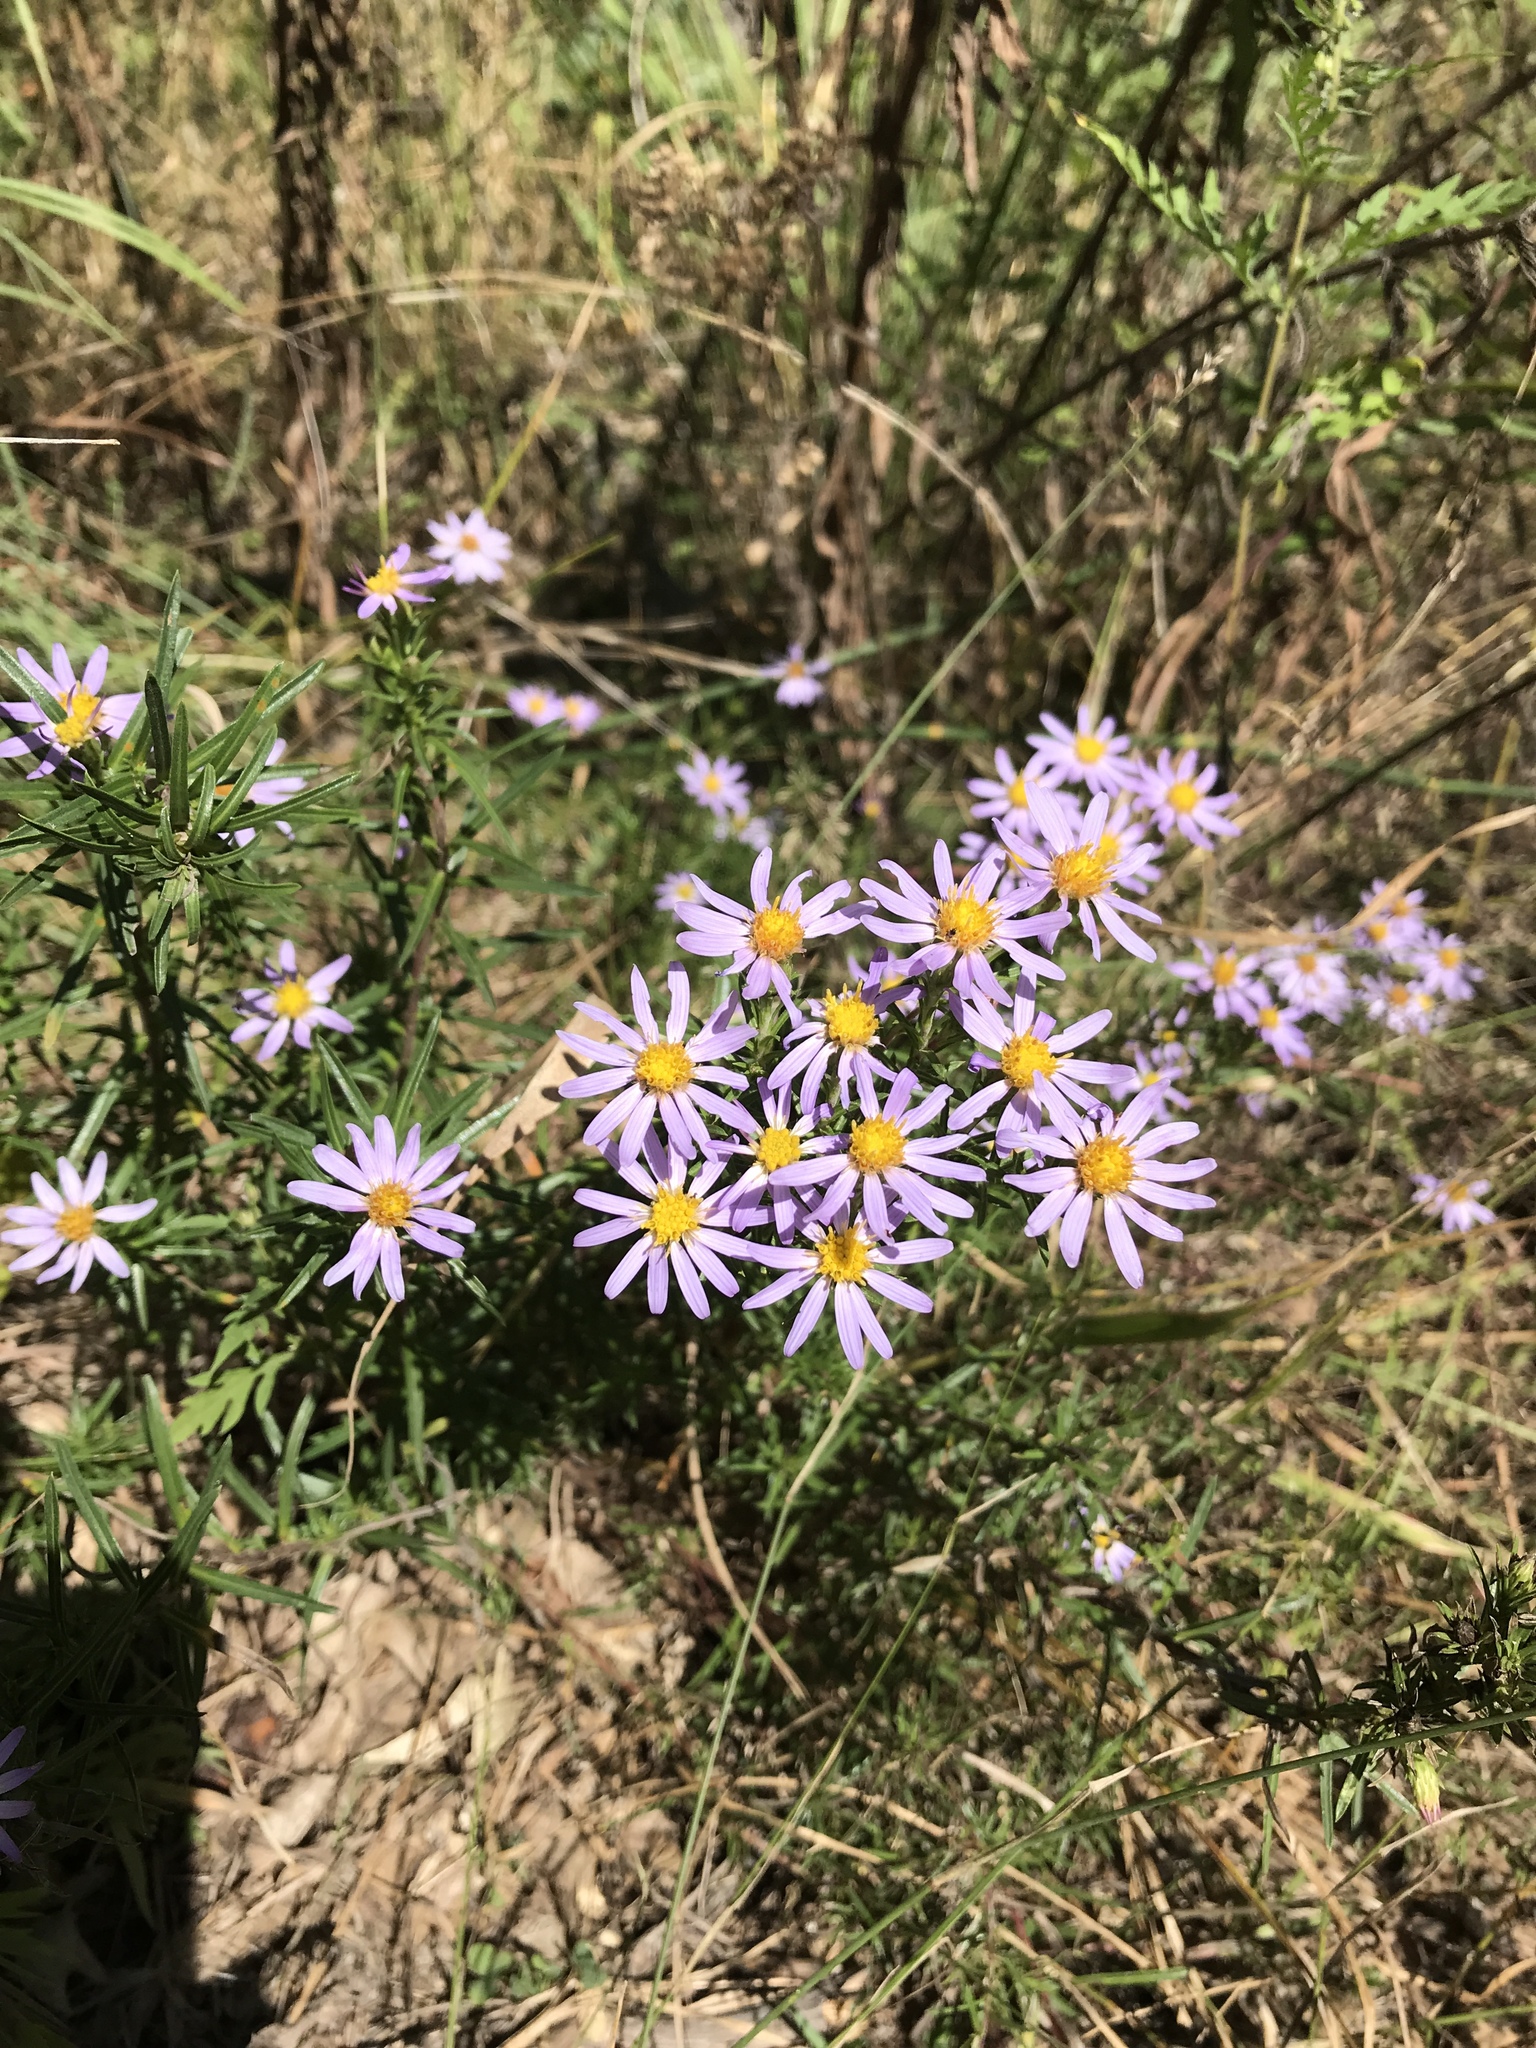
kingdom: Plantae
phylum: Tracheophyta
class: Magnoliopsida
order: Asterales
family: Asteraceae
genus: Ionactis
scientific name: Ionactis linariifolia
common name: Flax-leaf aster
